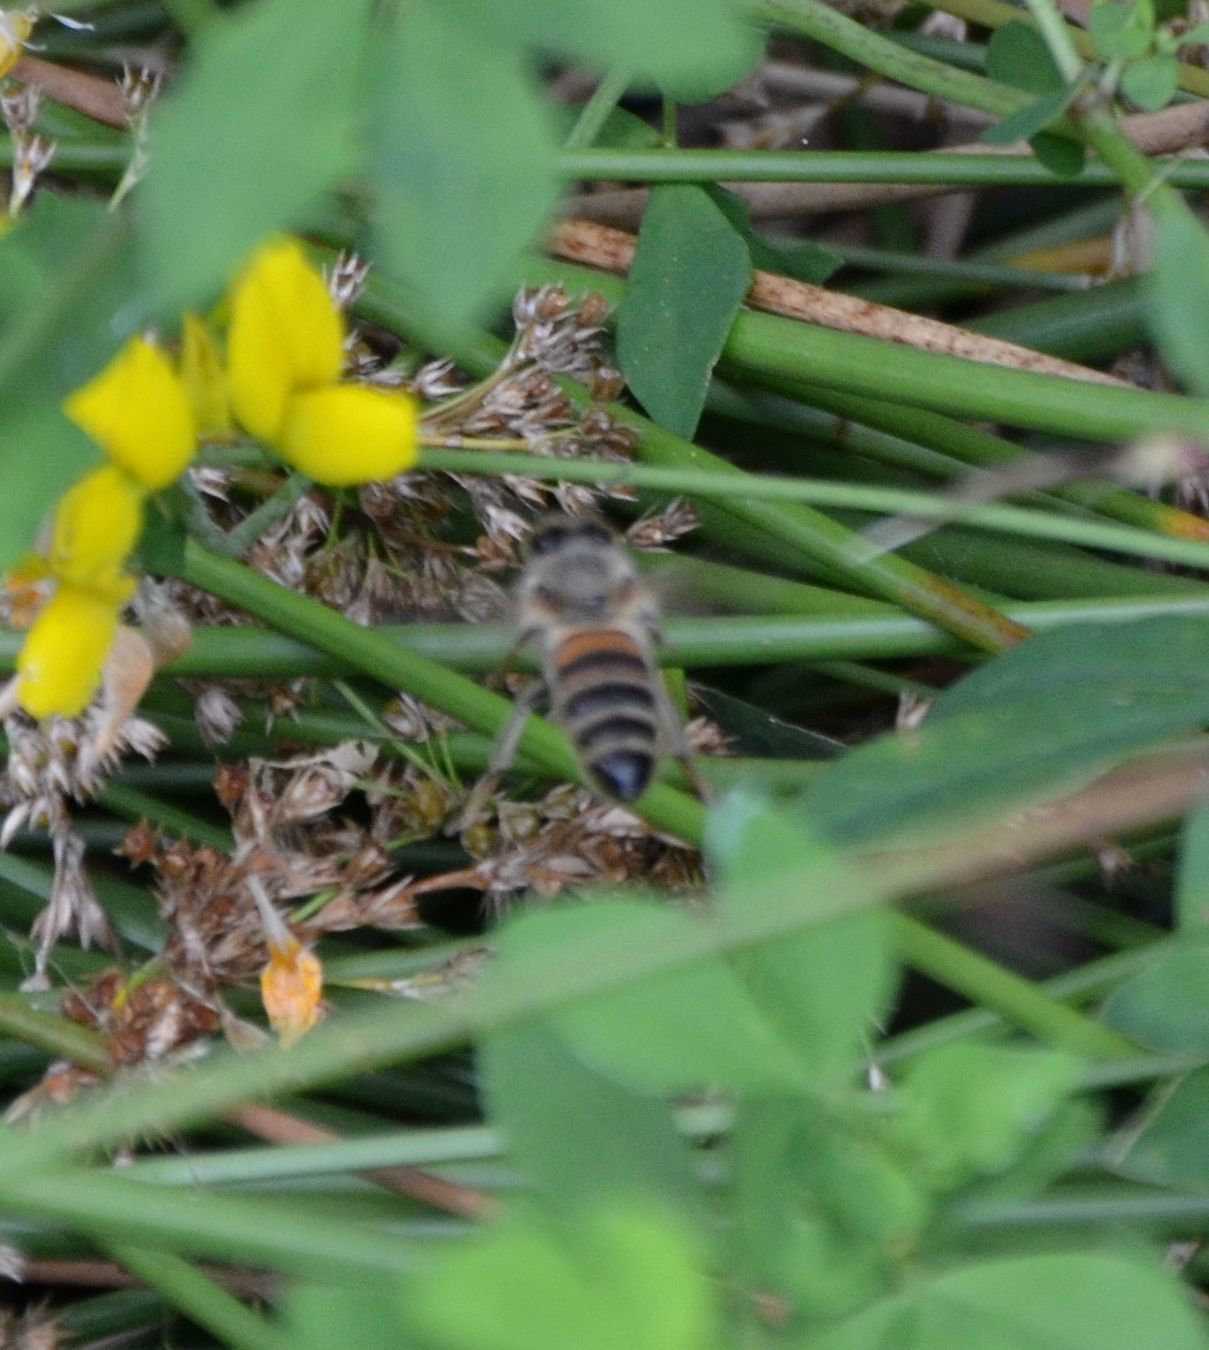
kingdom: Animalia
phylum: Arthropoda
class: Insecta
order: Hymenoptera
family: Apidae
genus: Apis
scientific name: Apis mellifera
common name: Honey bee
